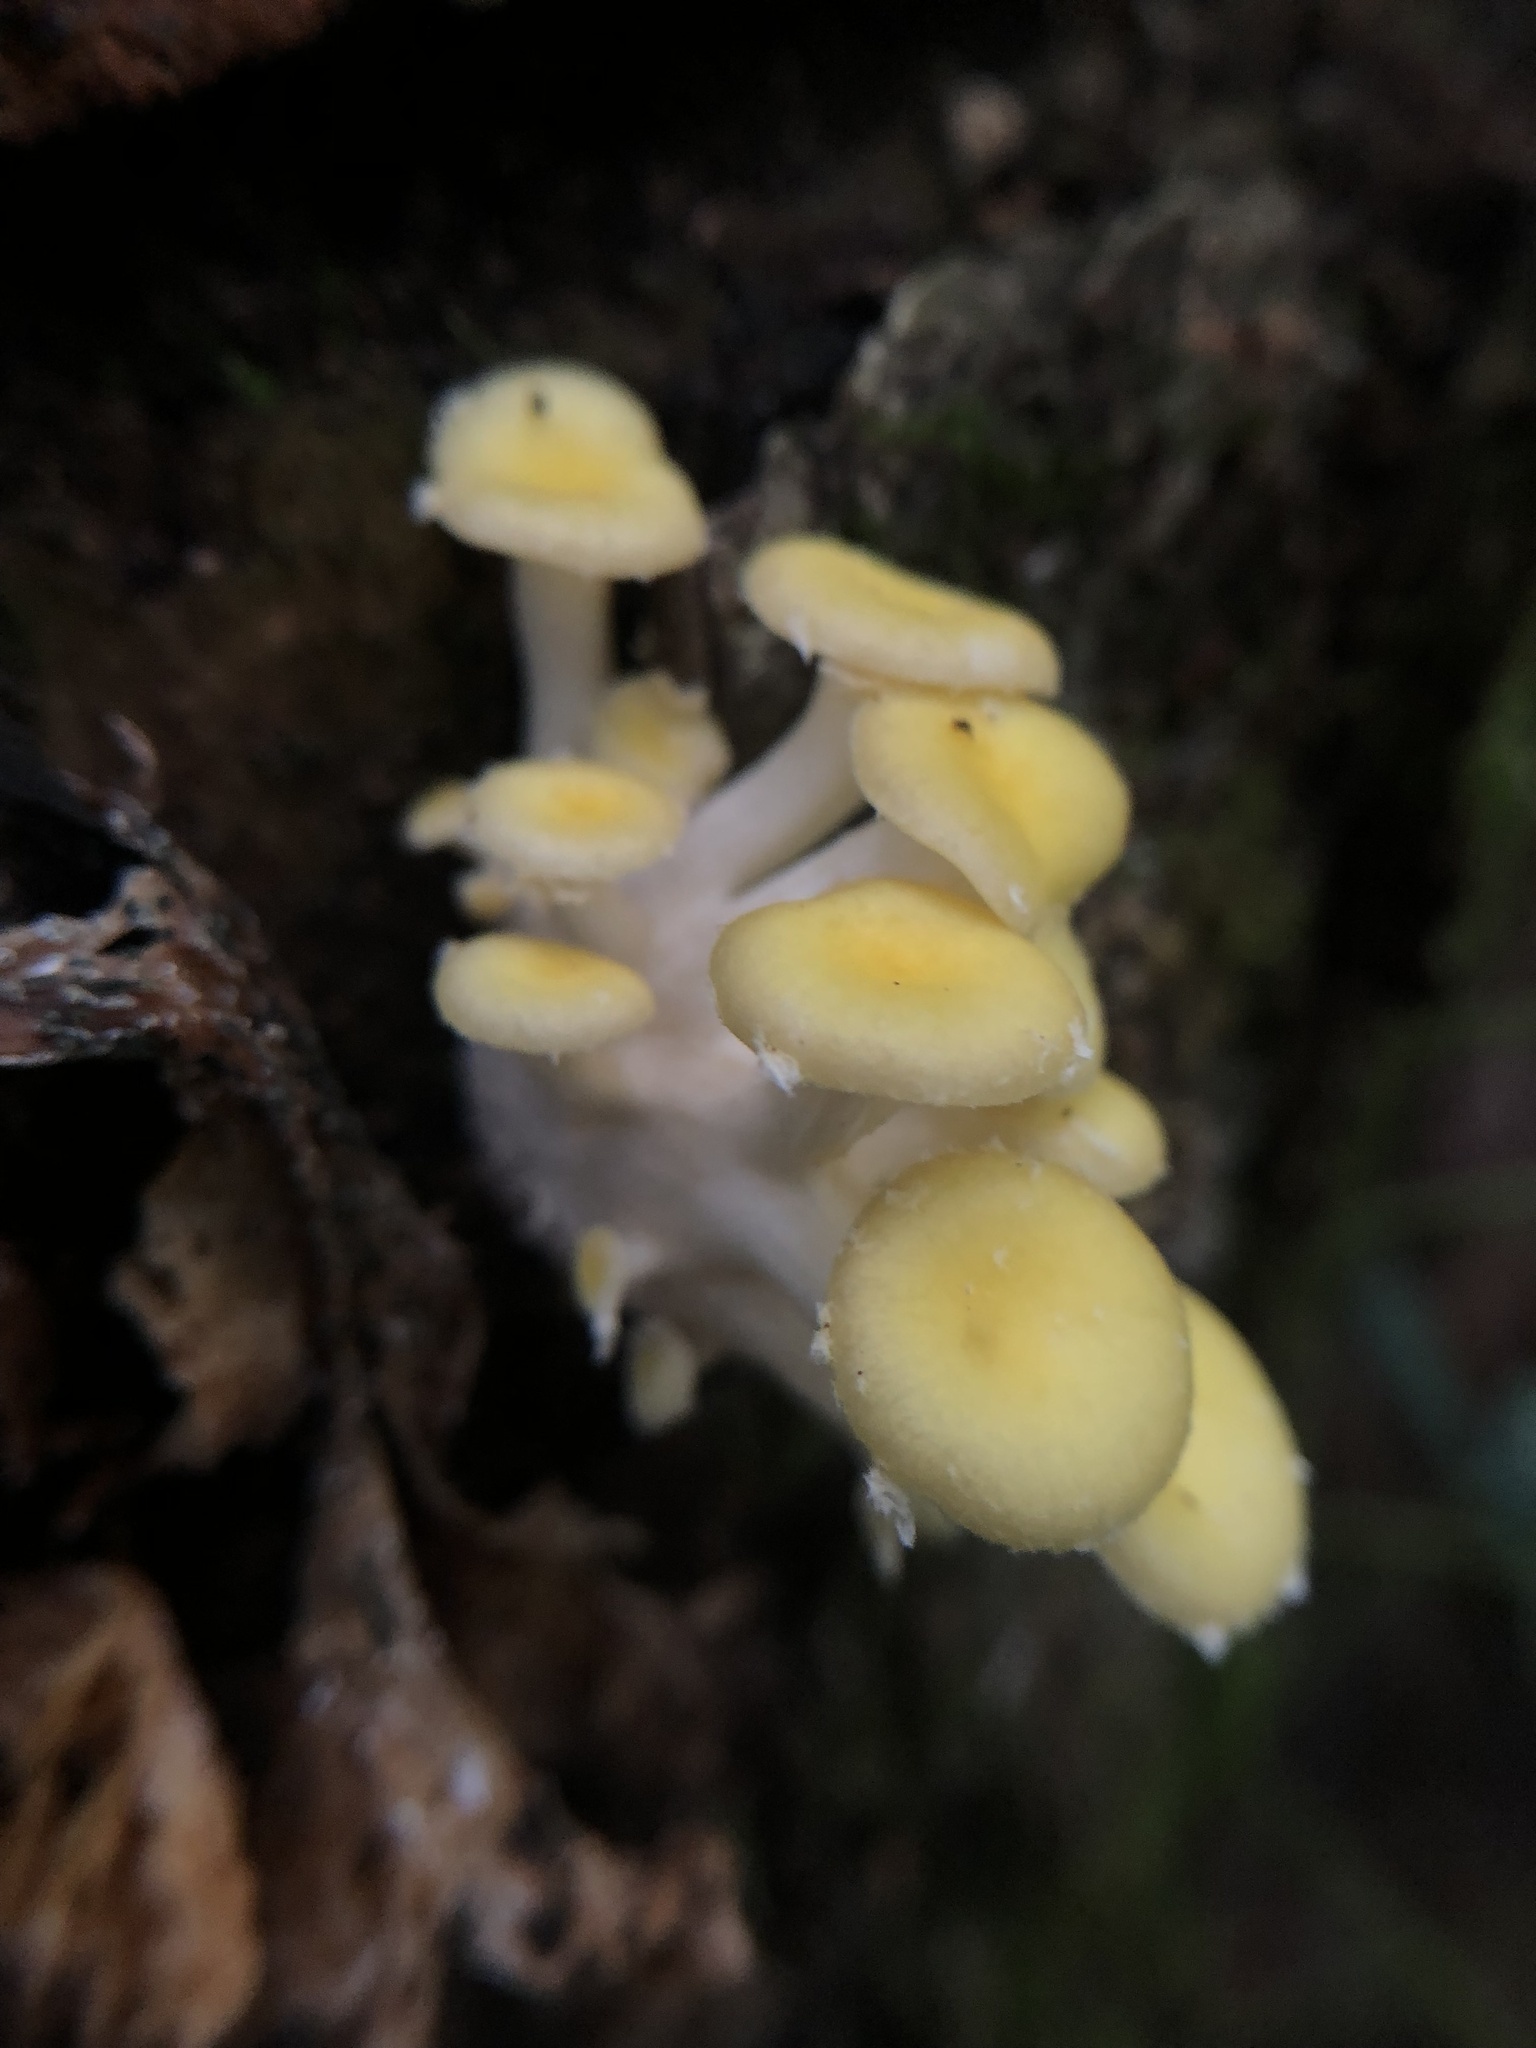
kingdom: Fungi
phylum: Basidiomycota
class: Agaricomycetes
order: Agaricales
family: Pleurotaceae
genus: Pleurotus
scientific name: Pleurotus citrinopileatus
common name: Golden oyster mushroom
